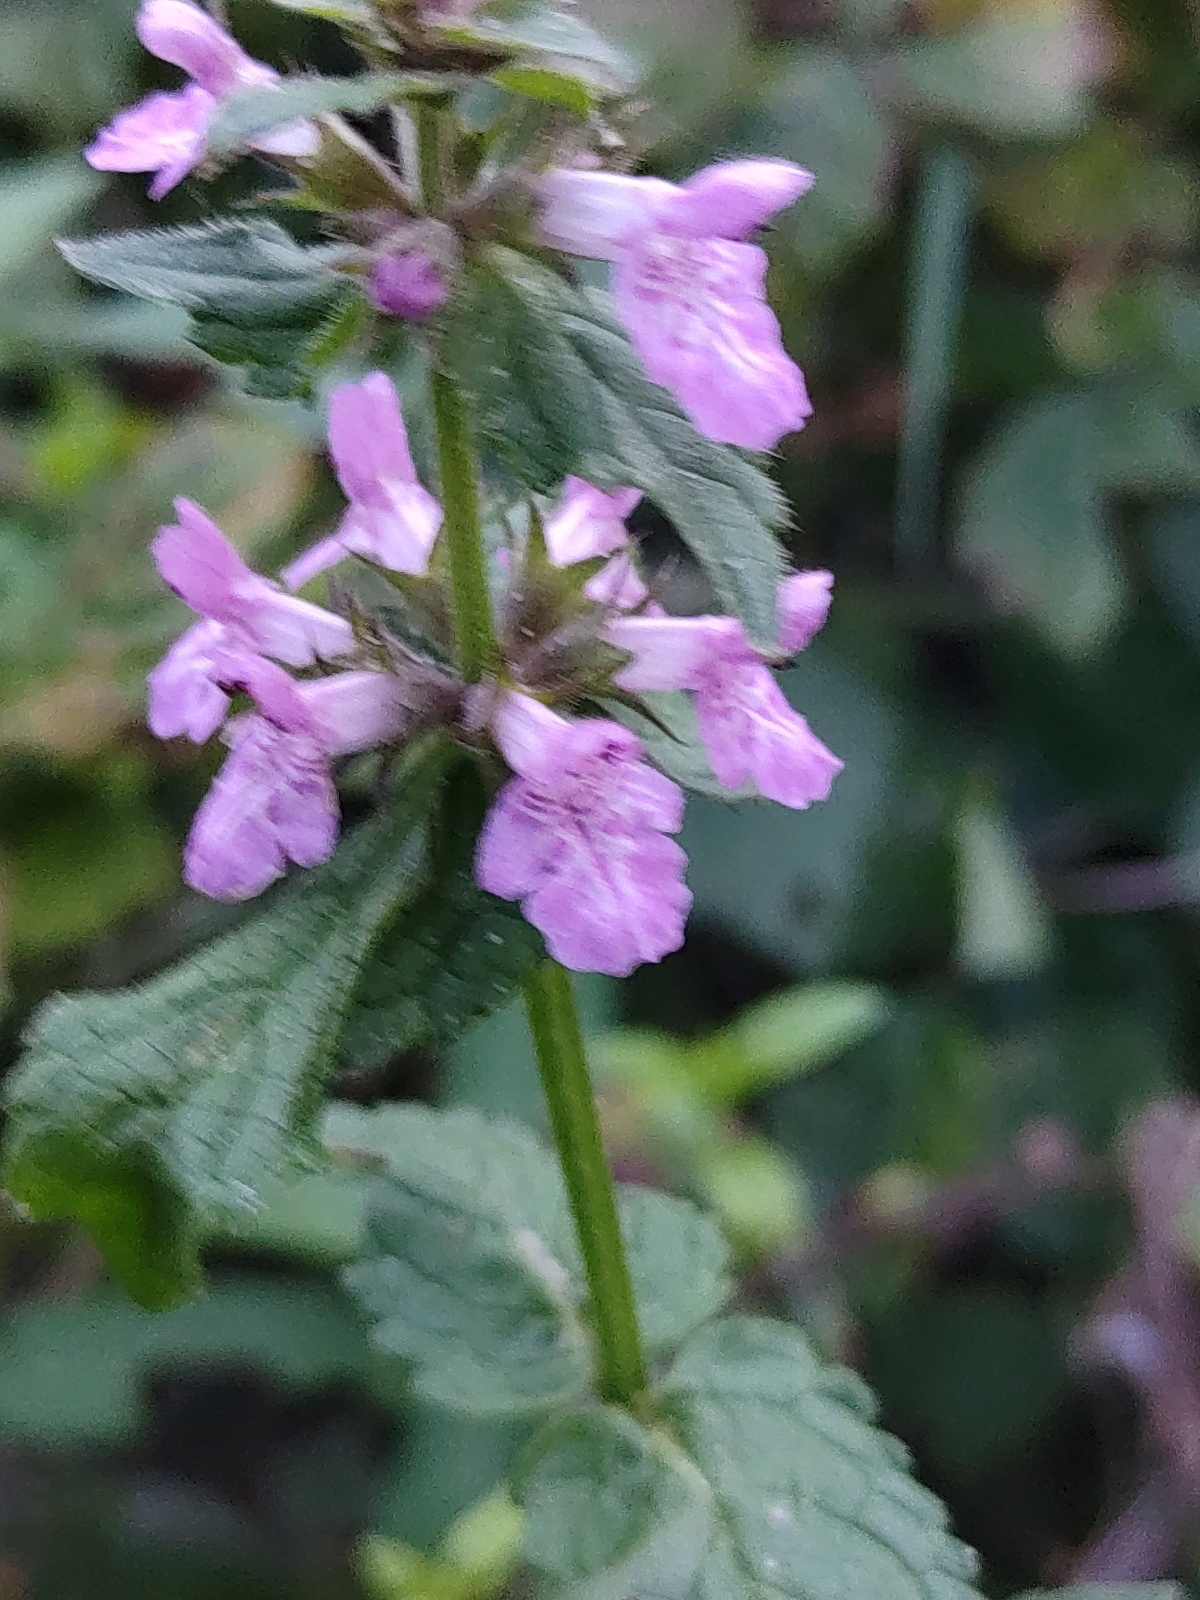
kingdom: Plantae
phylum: Tracheophyta
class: Magnoliopsida
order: Lamiales
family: Lamiaceae
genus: Stachys
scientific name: Stachys palustris
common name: Marsh woundwort
